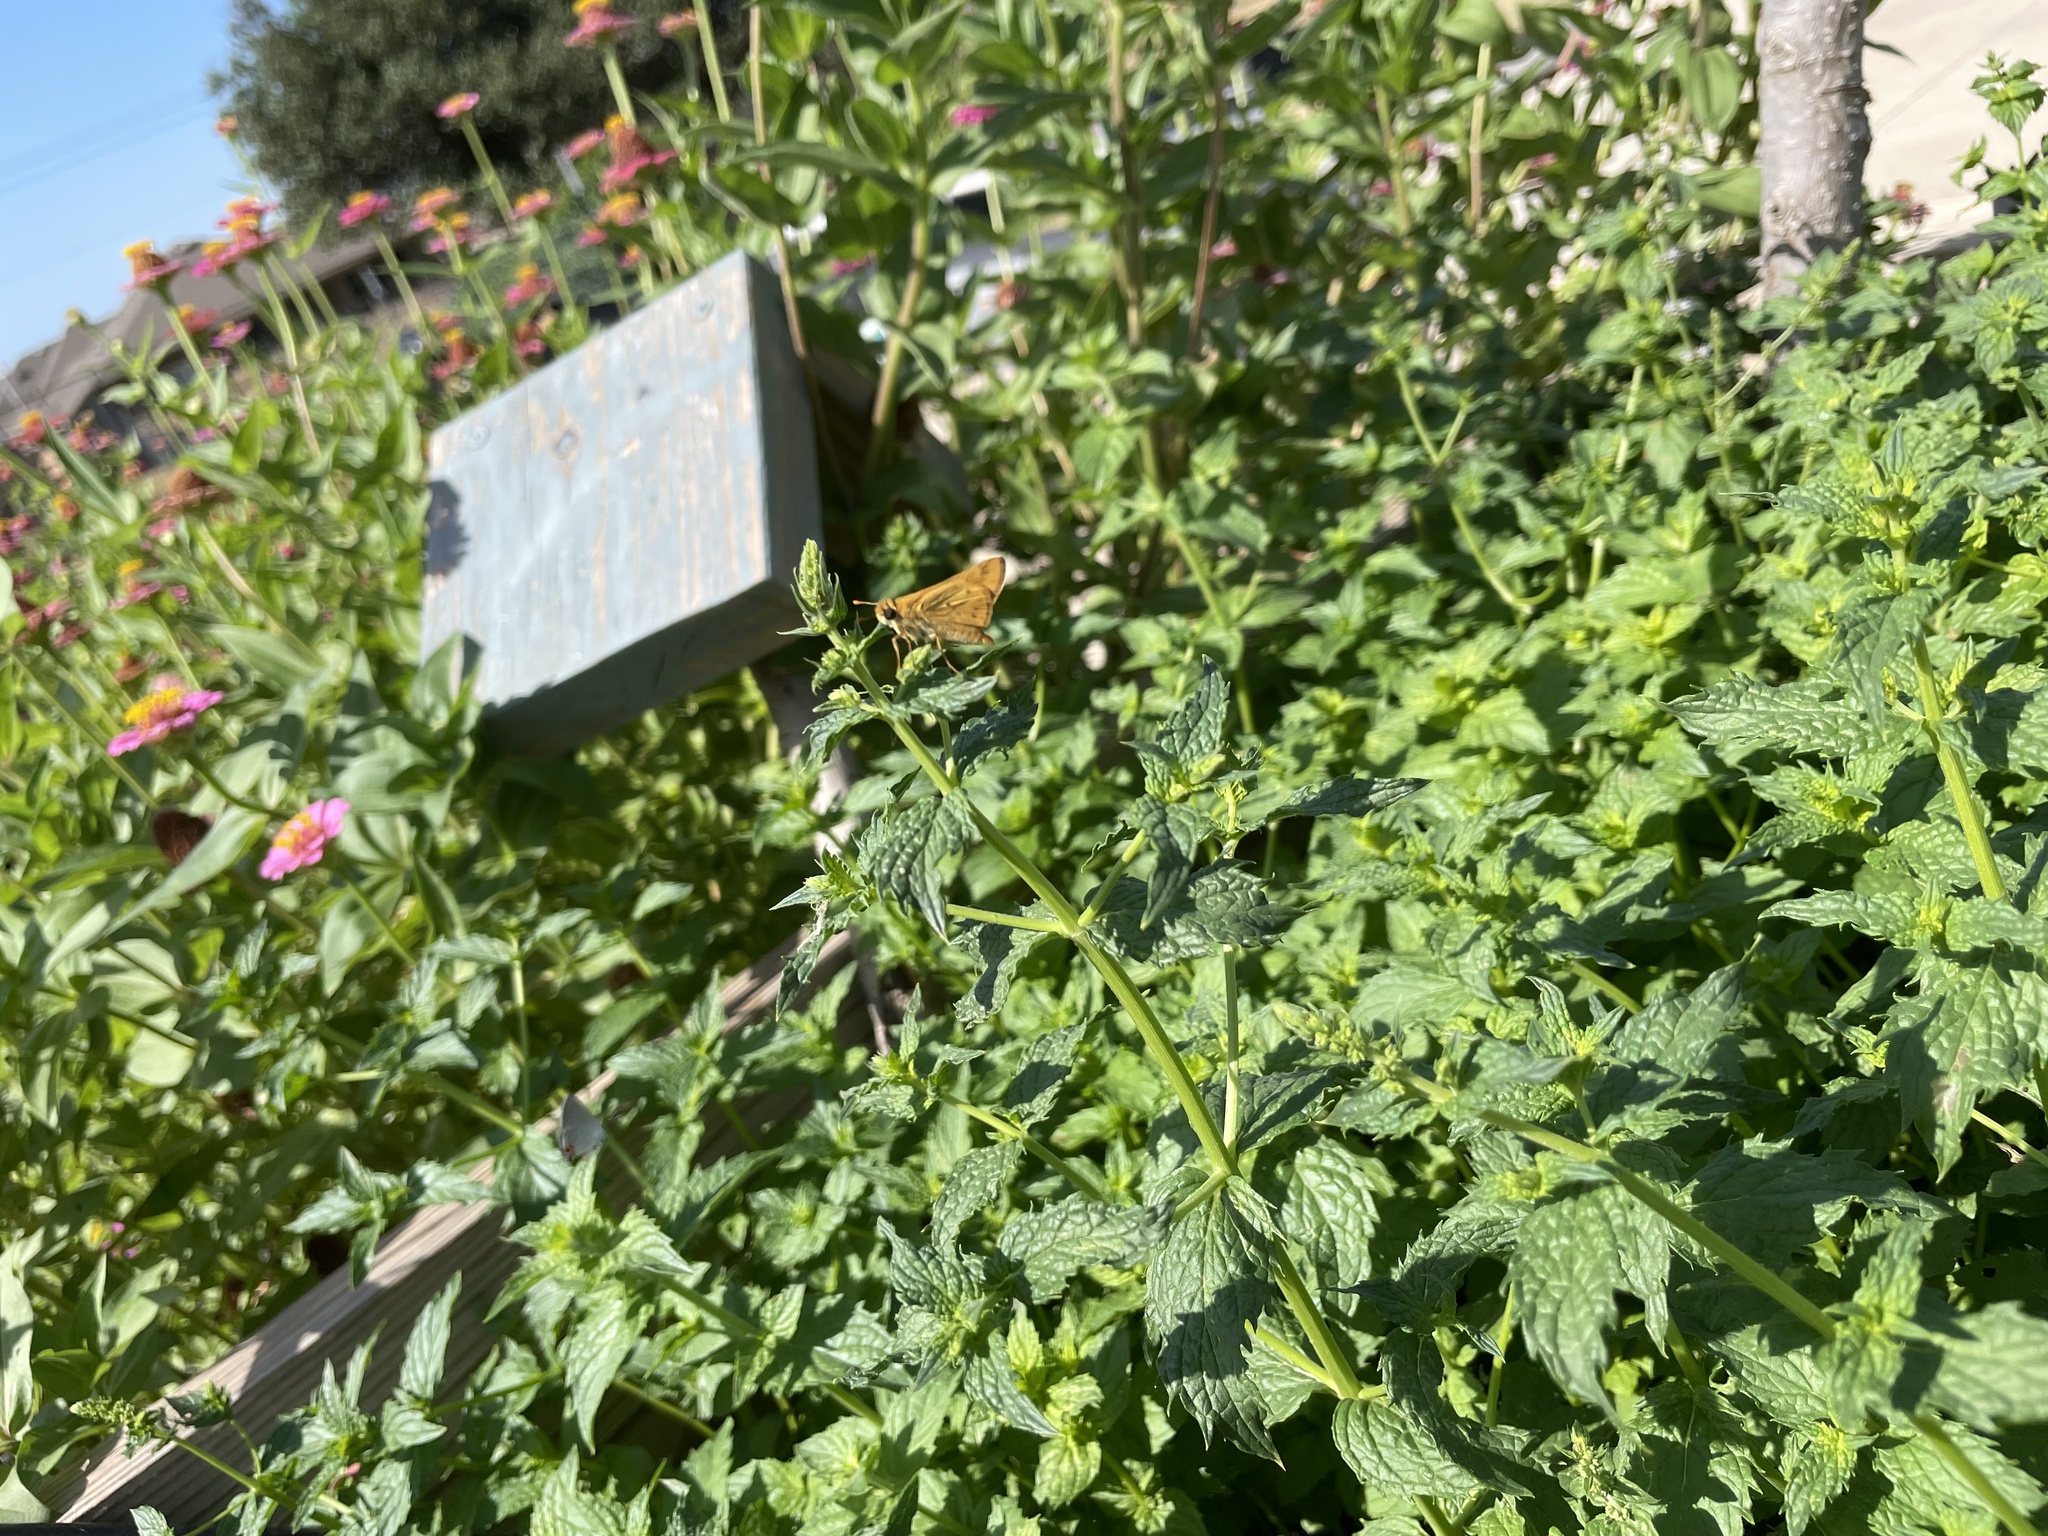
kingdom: Animalia
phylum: Arthropoda
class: Insecta
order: Lepidoptera
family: Hesperiidae
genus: Hylephila
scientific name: Hylephila phyleus
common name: Fiery skipper
